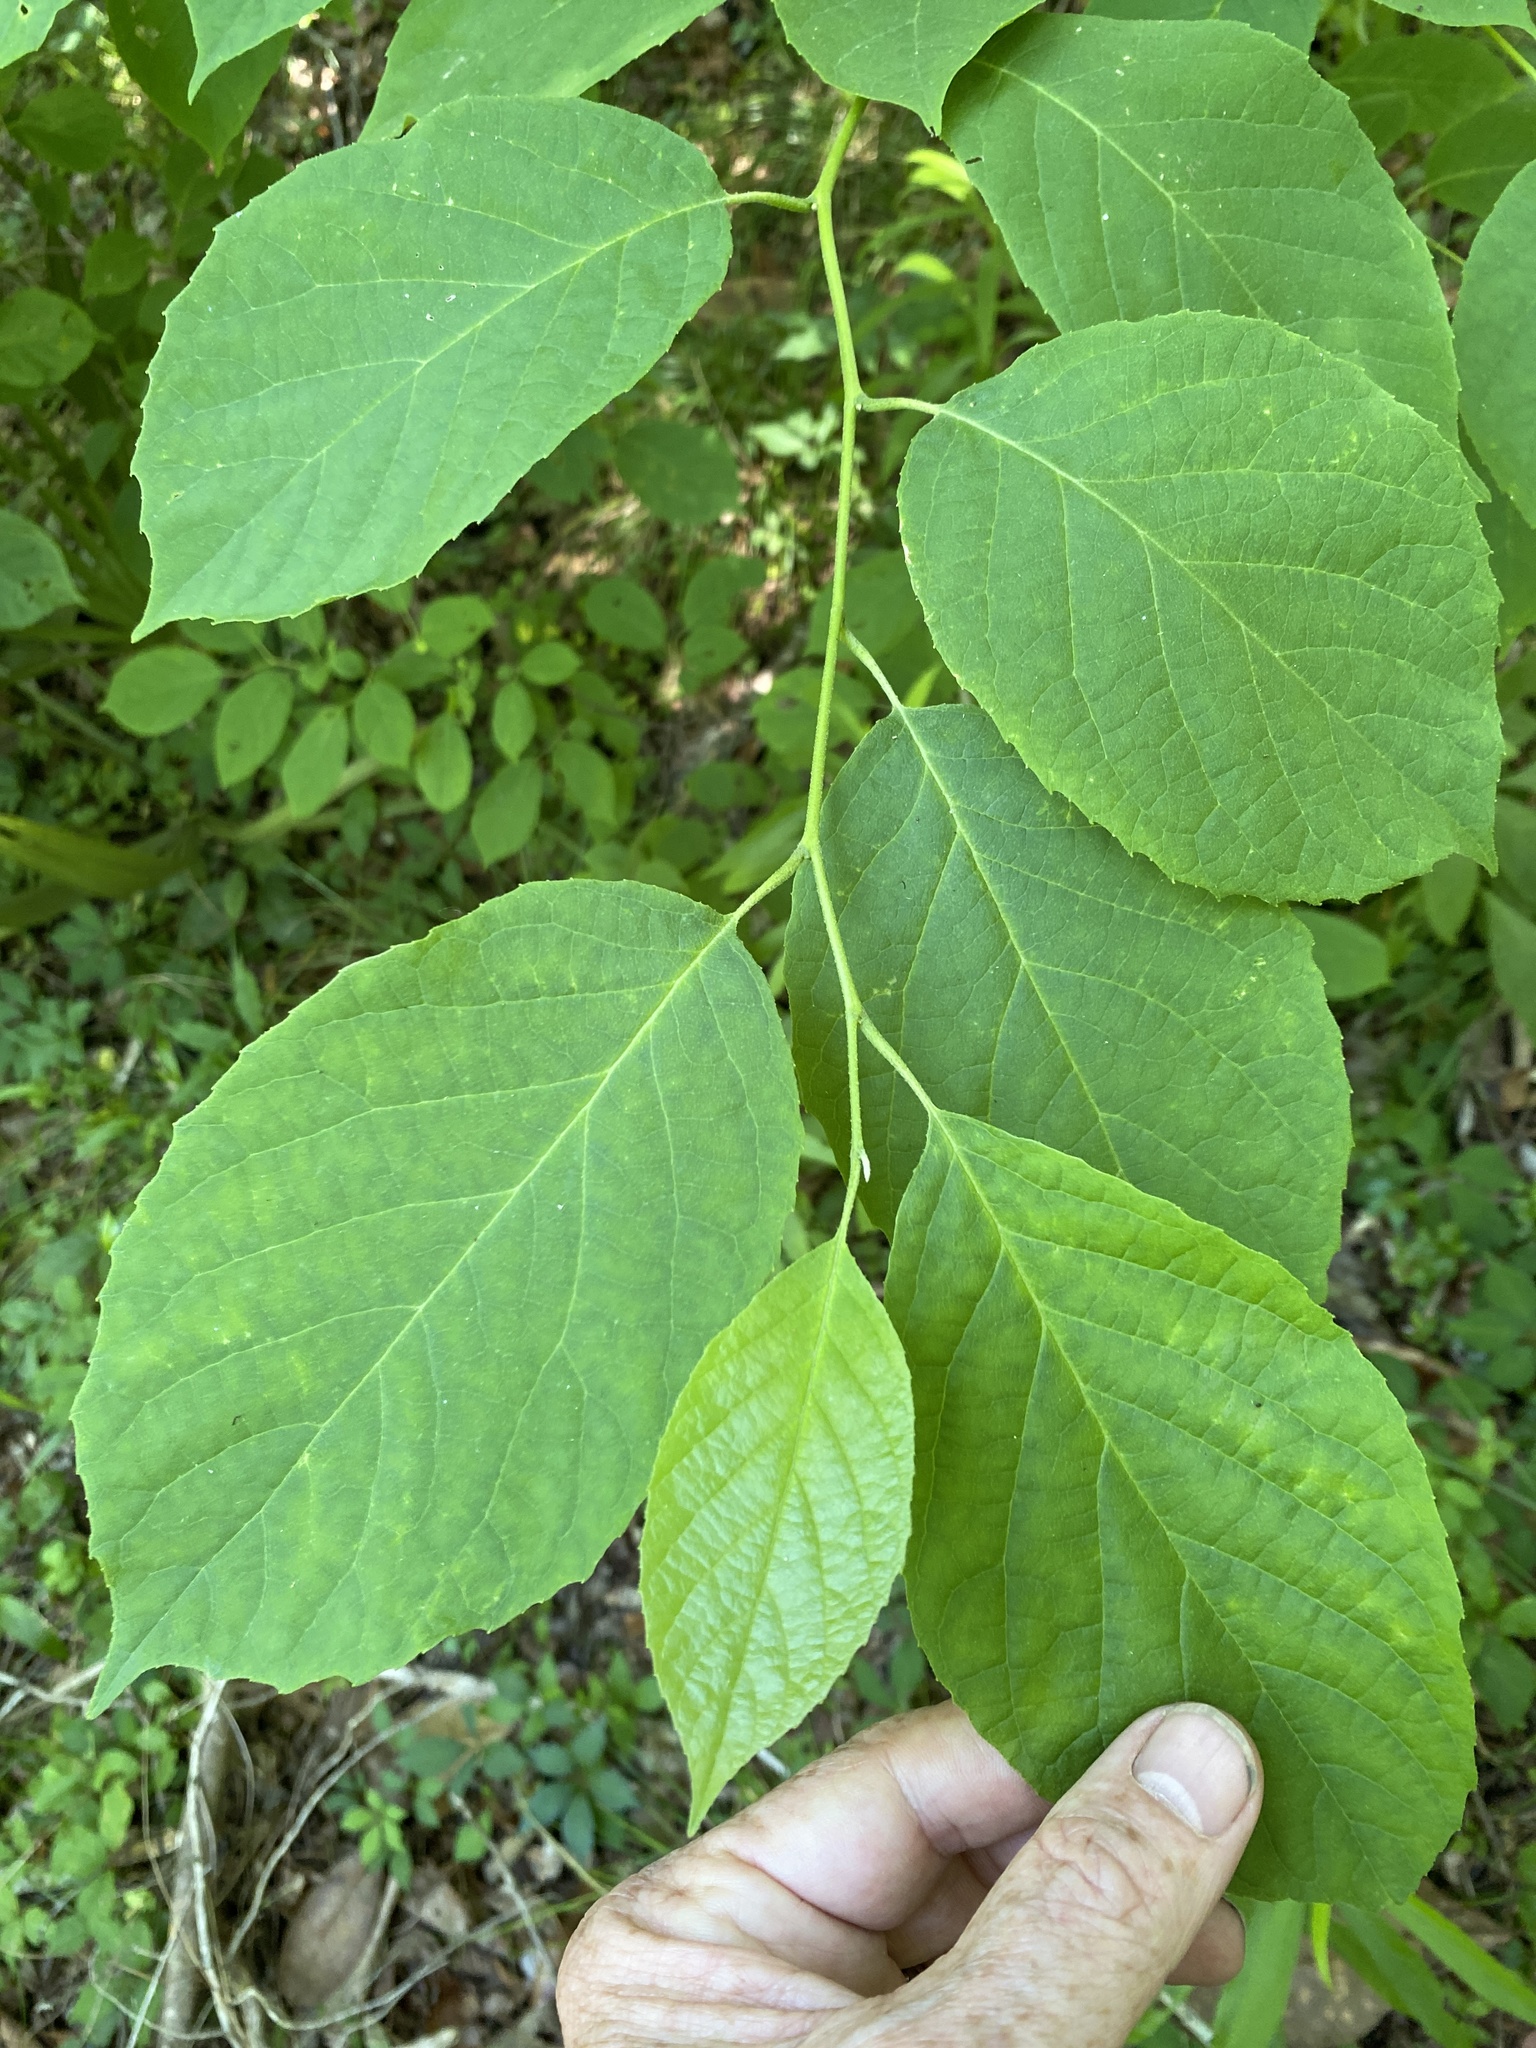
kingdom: Plantae
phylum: Tracheophyta
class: Magnoliopsida
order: Ericales
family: Styracaceae
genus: Halesia
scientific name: Halesia diptera
